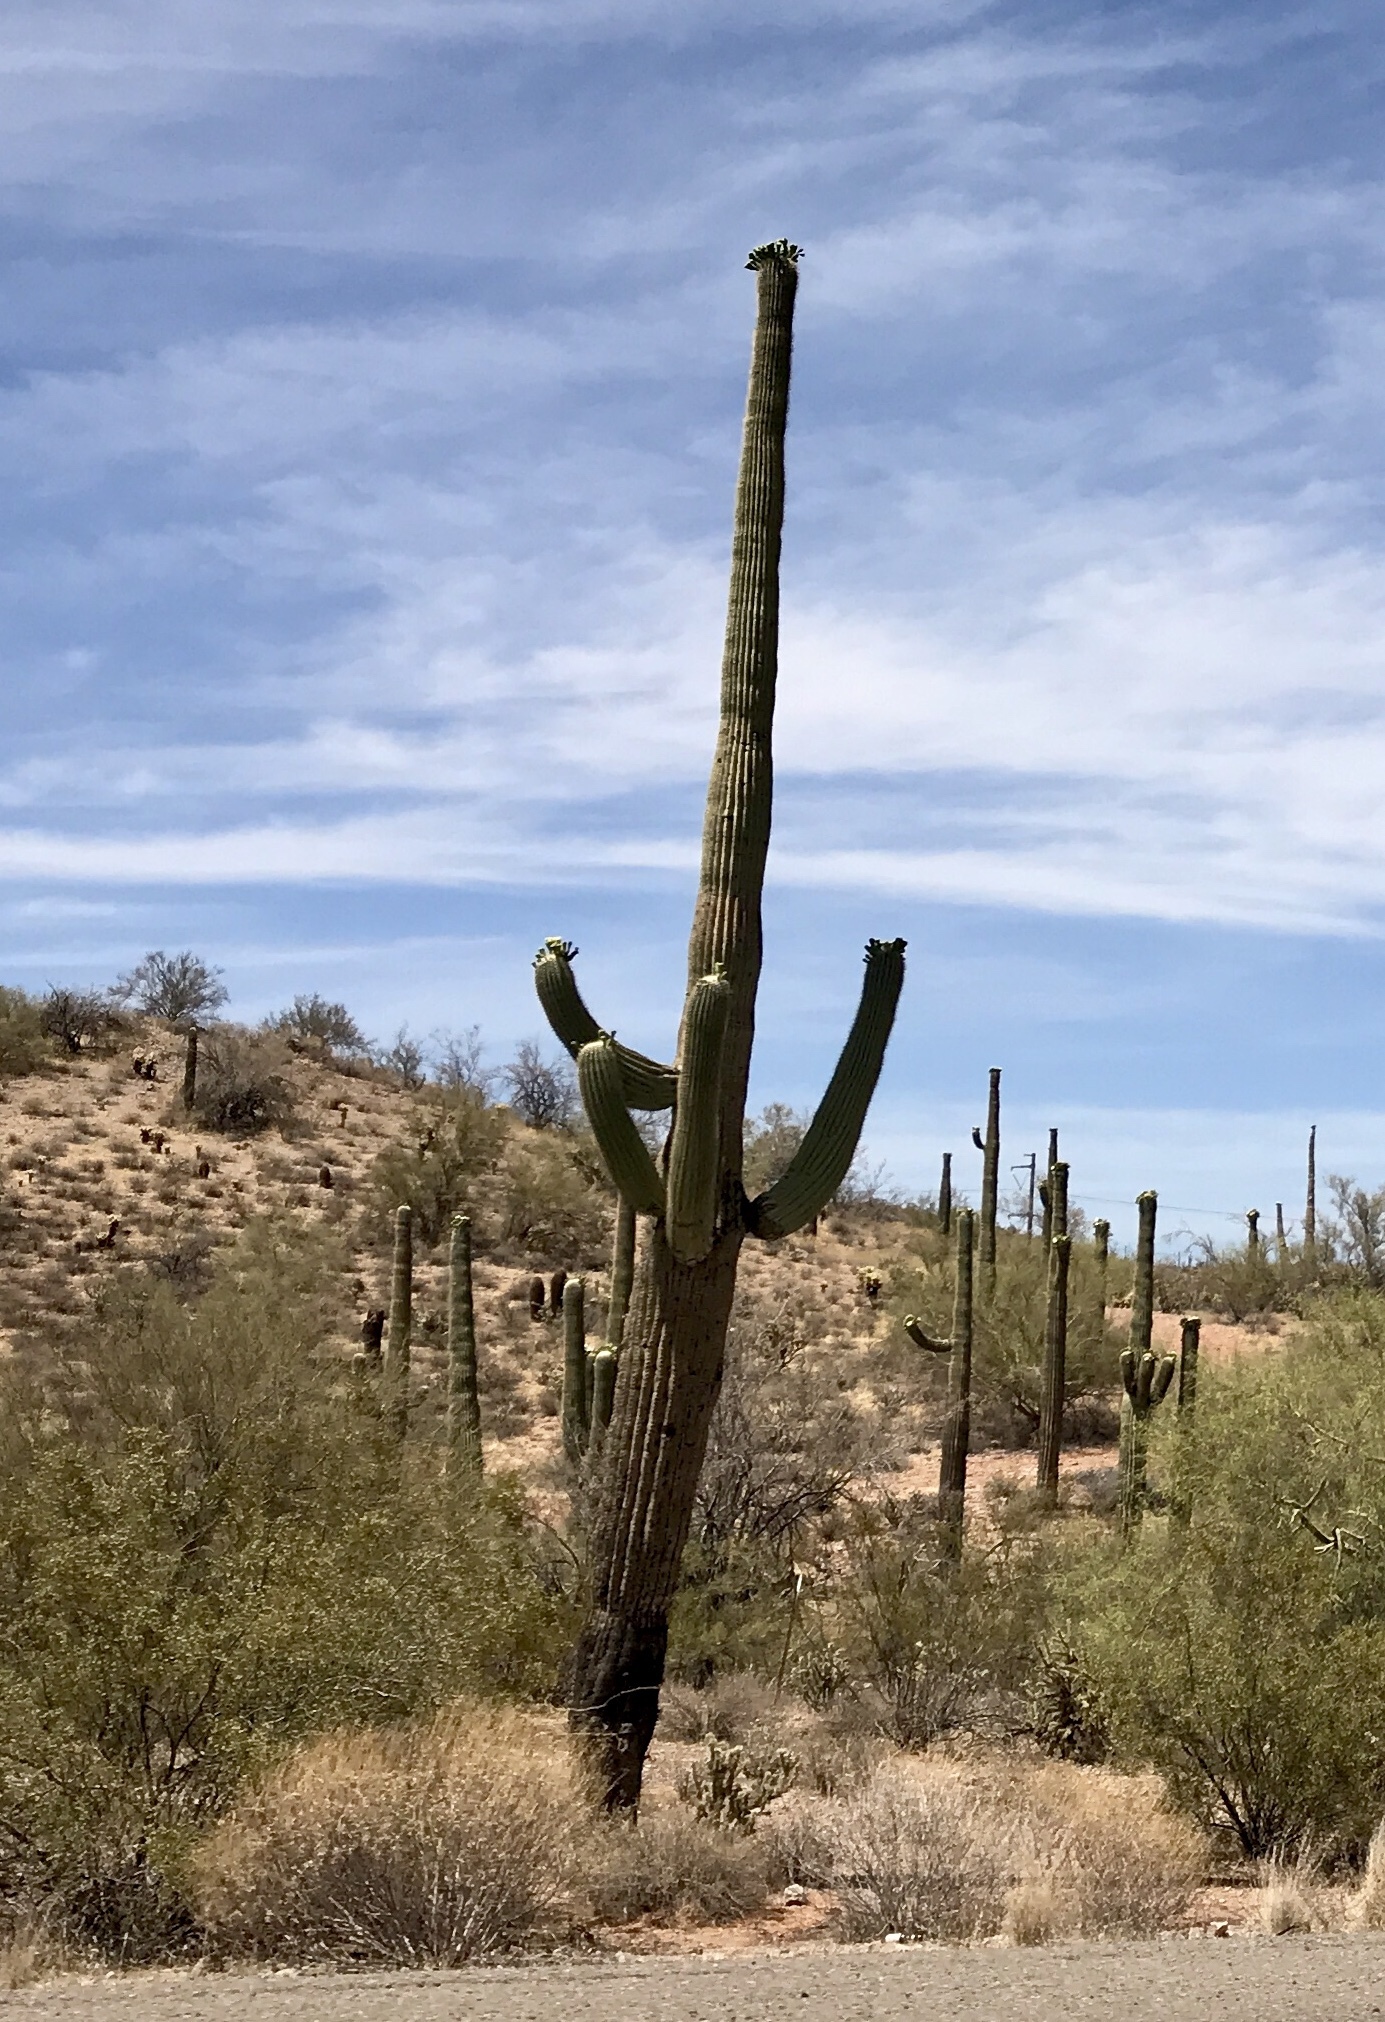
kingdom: Plantae
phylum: Tracheophyta
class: Magnoliopsida
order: Caryophyllales
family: Cactaceae
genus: Carnegiea
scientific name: Carnegiea gigantea
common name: Saguaro
